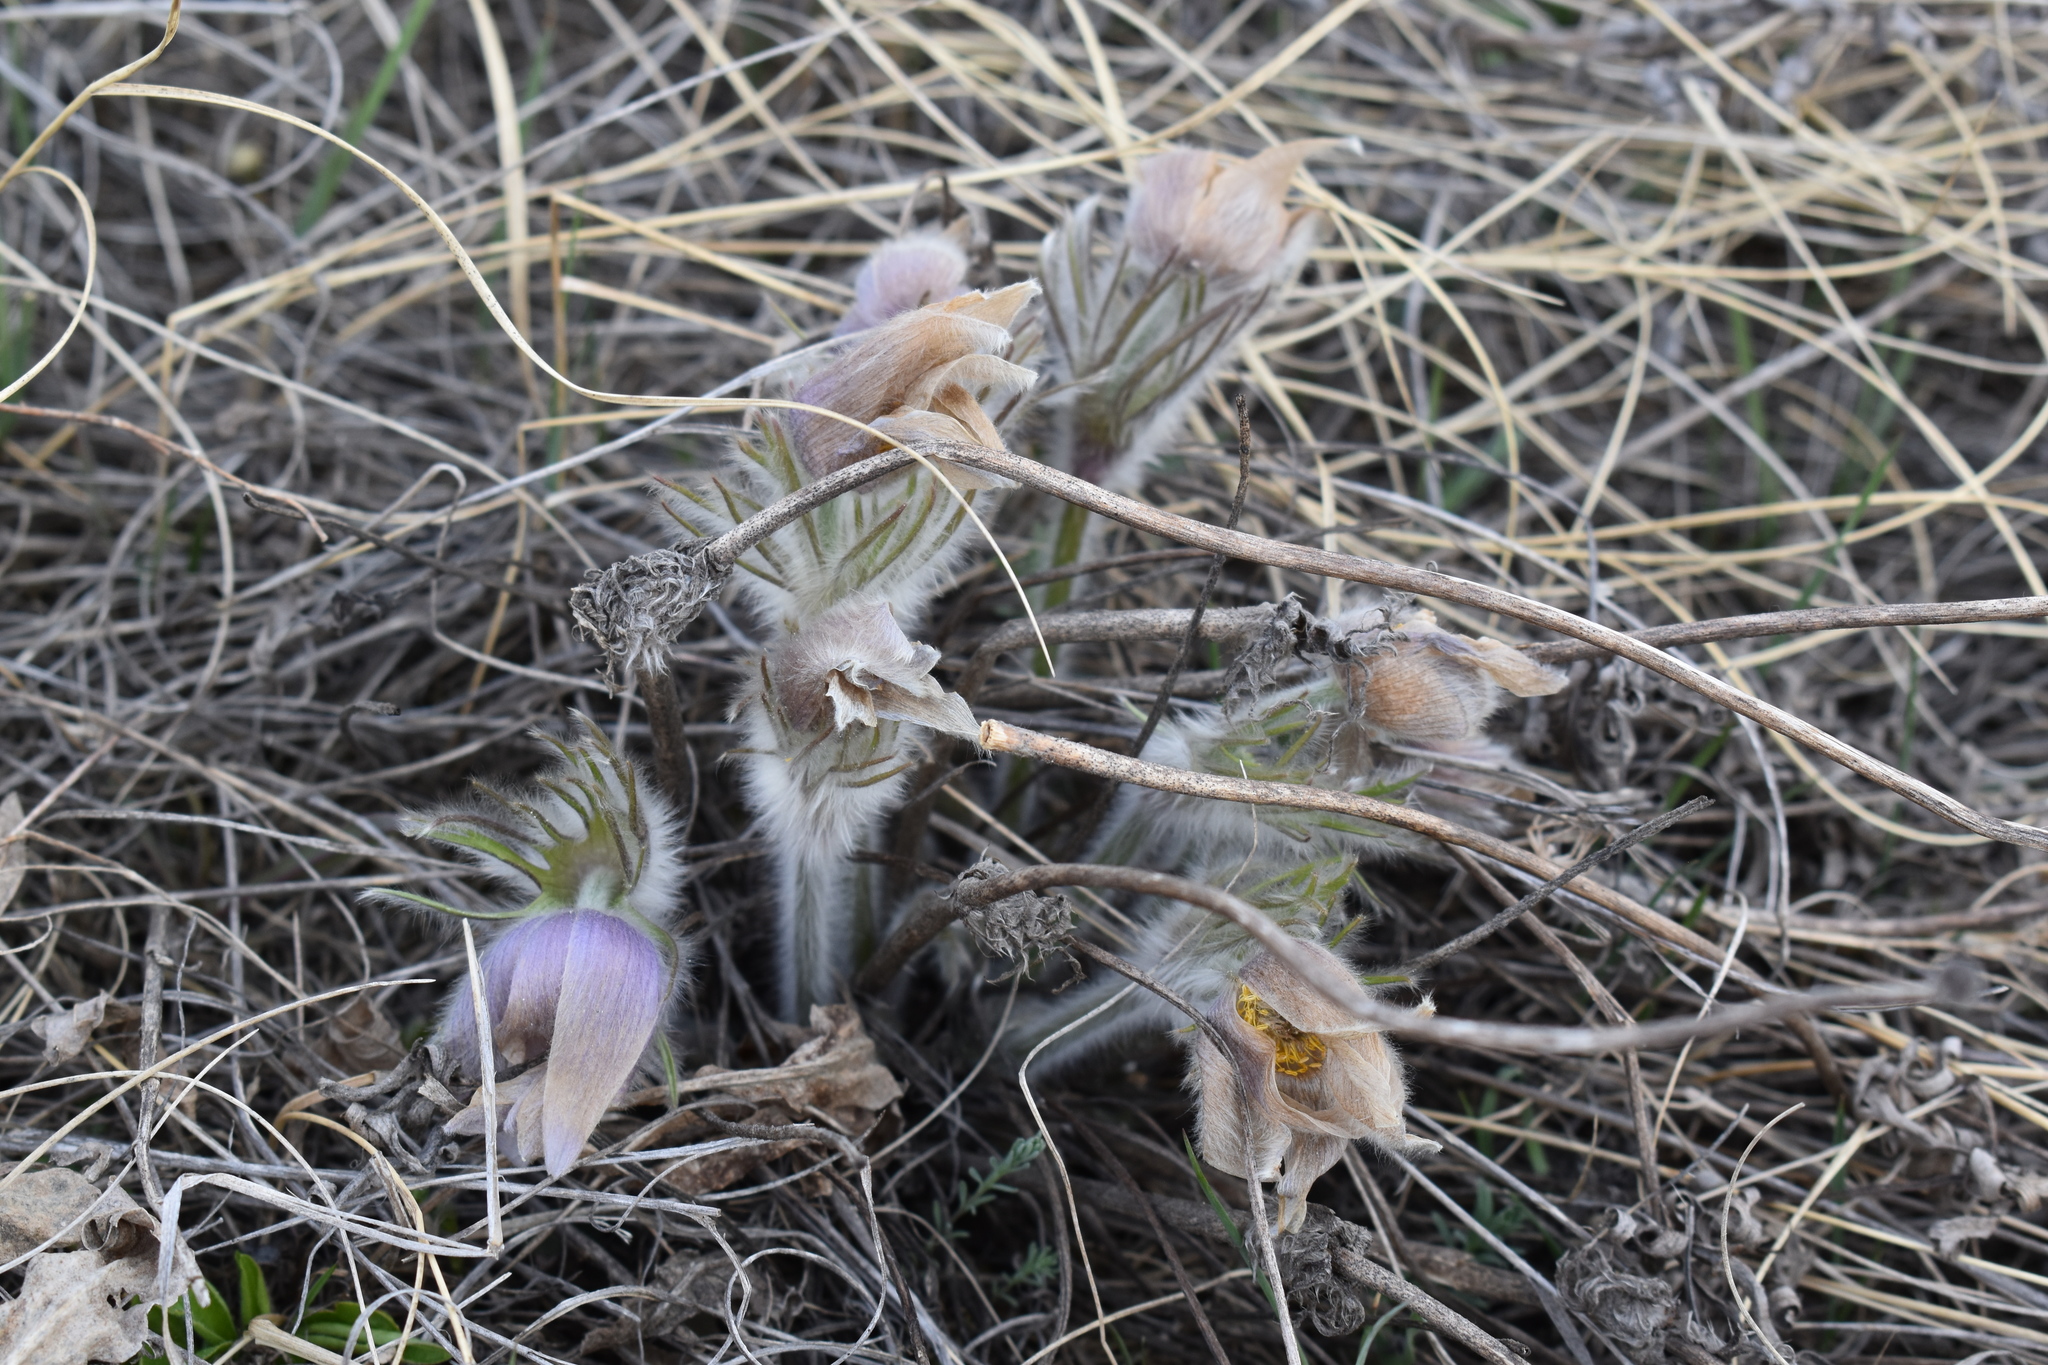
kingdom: Plantae
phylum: Tracheophyta
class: Magnoliopsida
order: Ranunculales
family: Ranunculaceae
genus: Pulsatilla
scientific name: Pulsatilla nuttalliana
